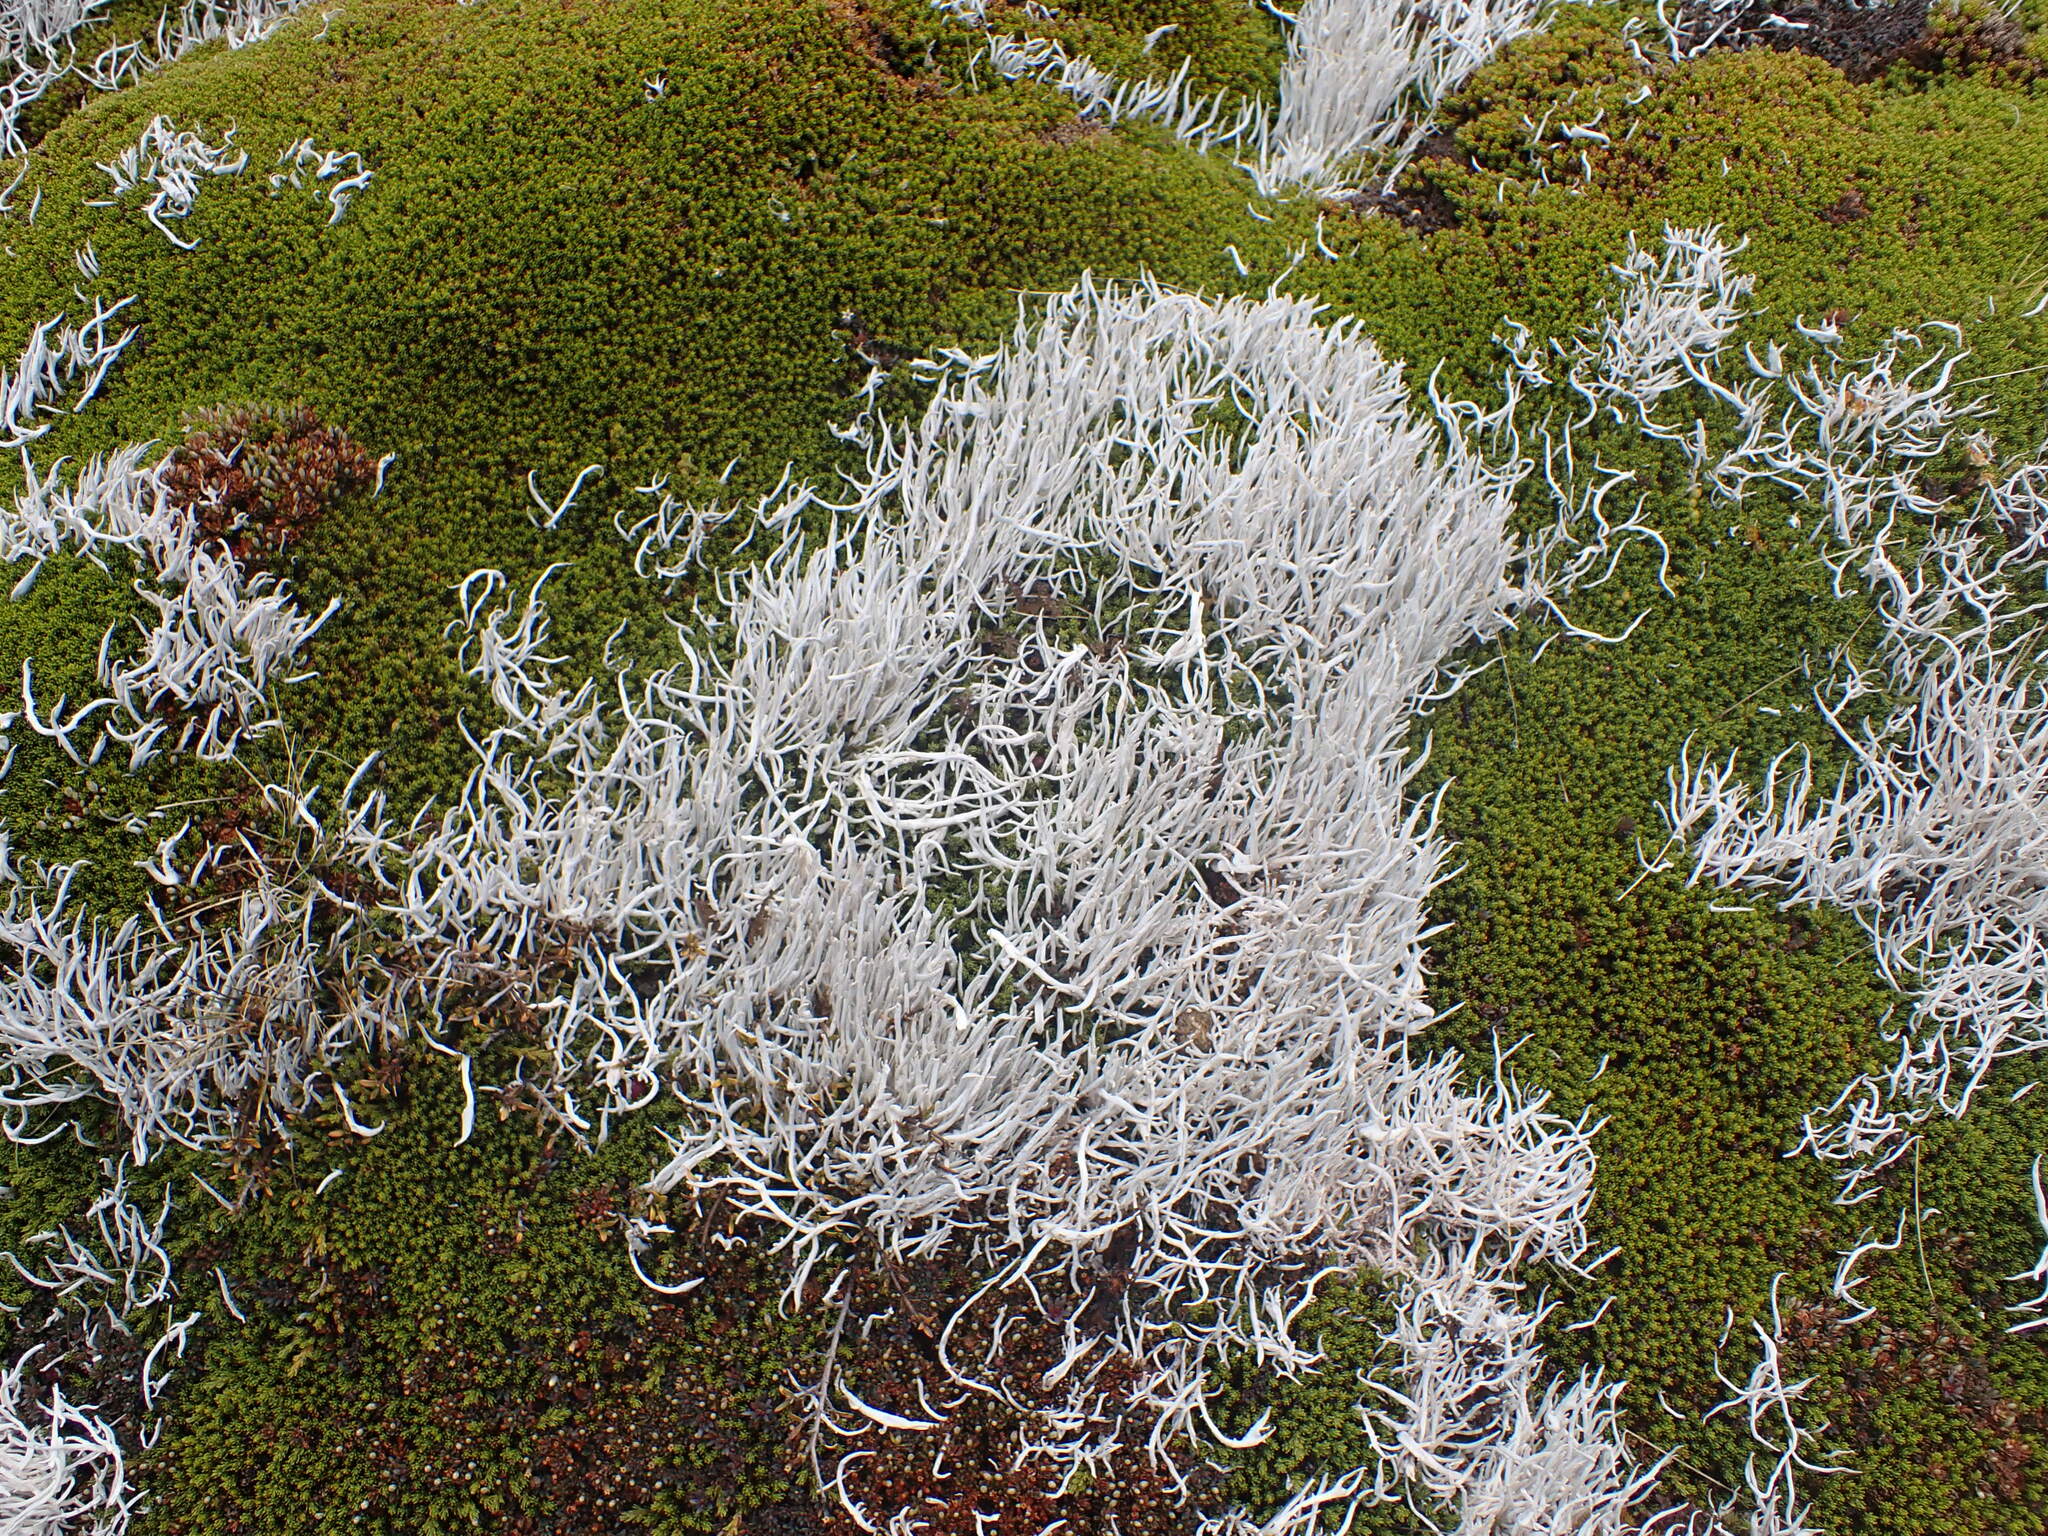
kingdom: Fungi
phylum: Ascomycota
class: Lecanoromycetes
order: Pertusariales
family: Icmadophilaceae
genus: Thamnolia
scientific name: Thamnolia vermicularis
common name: Whiteworm lichen
